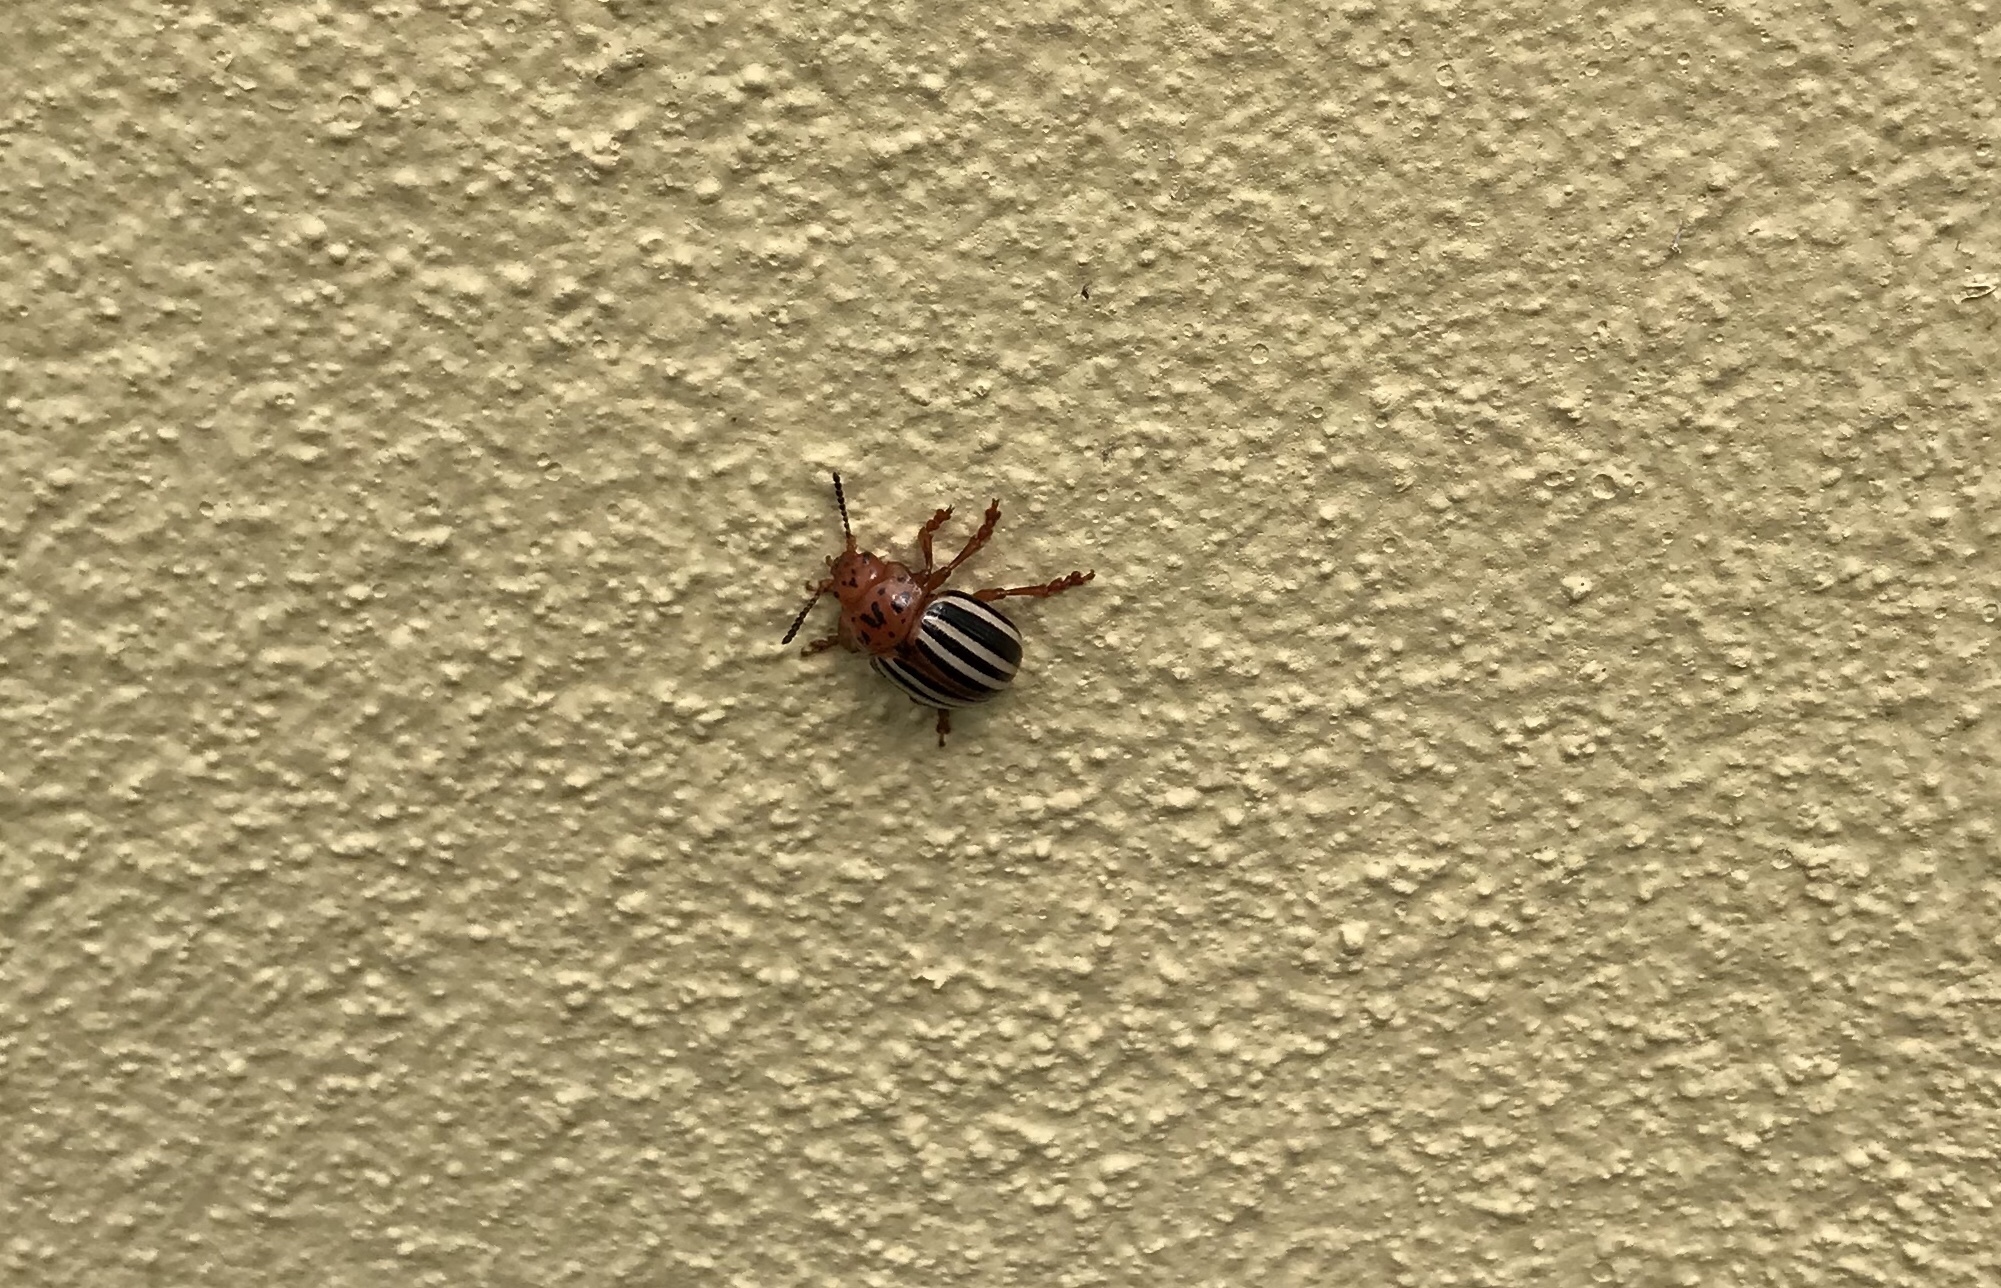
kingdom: Animalia
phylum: Arthropoda
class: Insecta
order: Coleoptera
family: Chrysomelidae
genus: Leptinotarsa
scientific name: Leptinotarsa juncta
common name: False potato beetle
